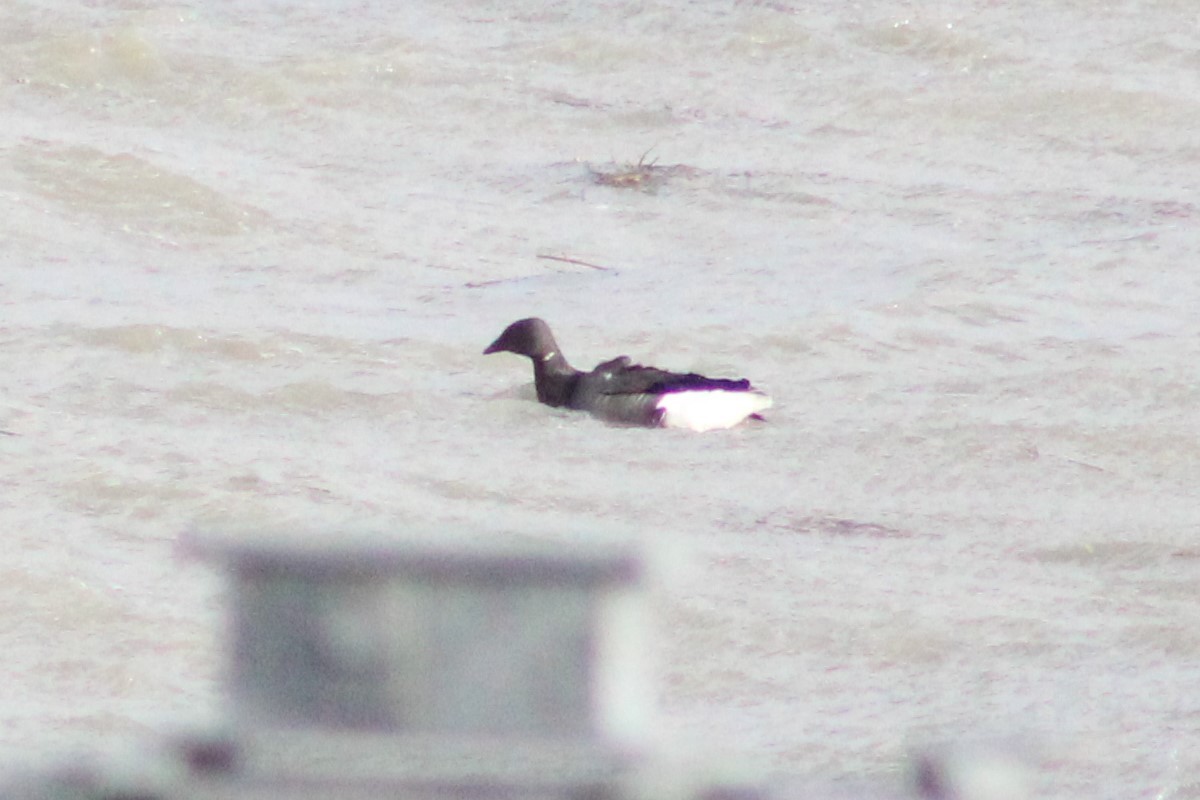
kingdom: Animalia
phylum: Chordata
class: Aves
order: Anseriformes
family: Anatidae
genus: Branta
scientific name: Branta bernicla
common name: Brant goose
